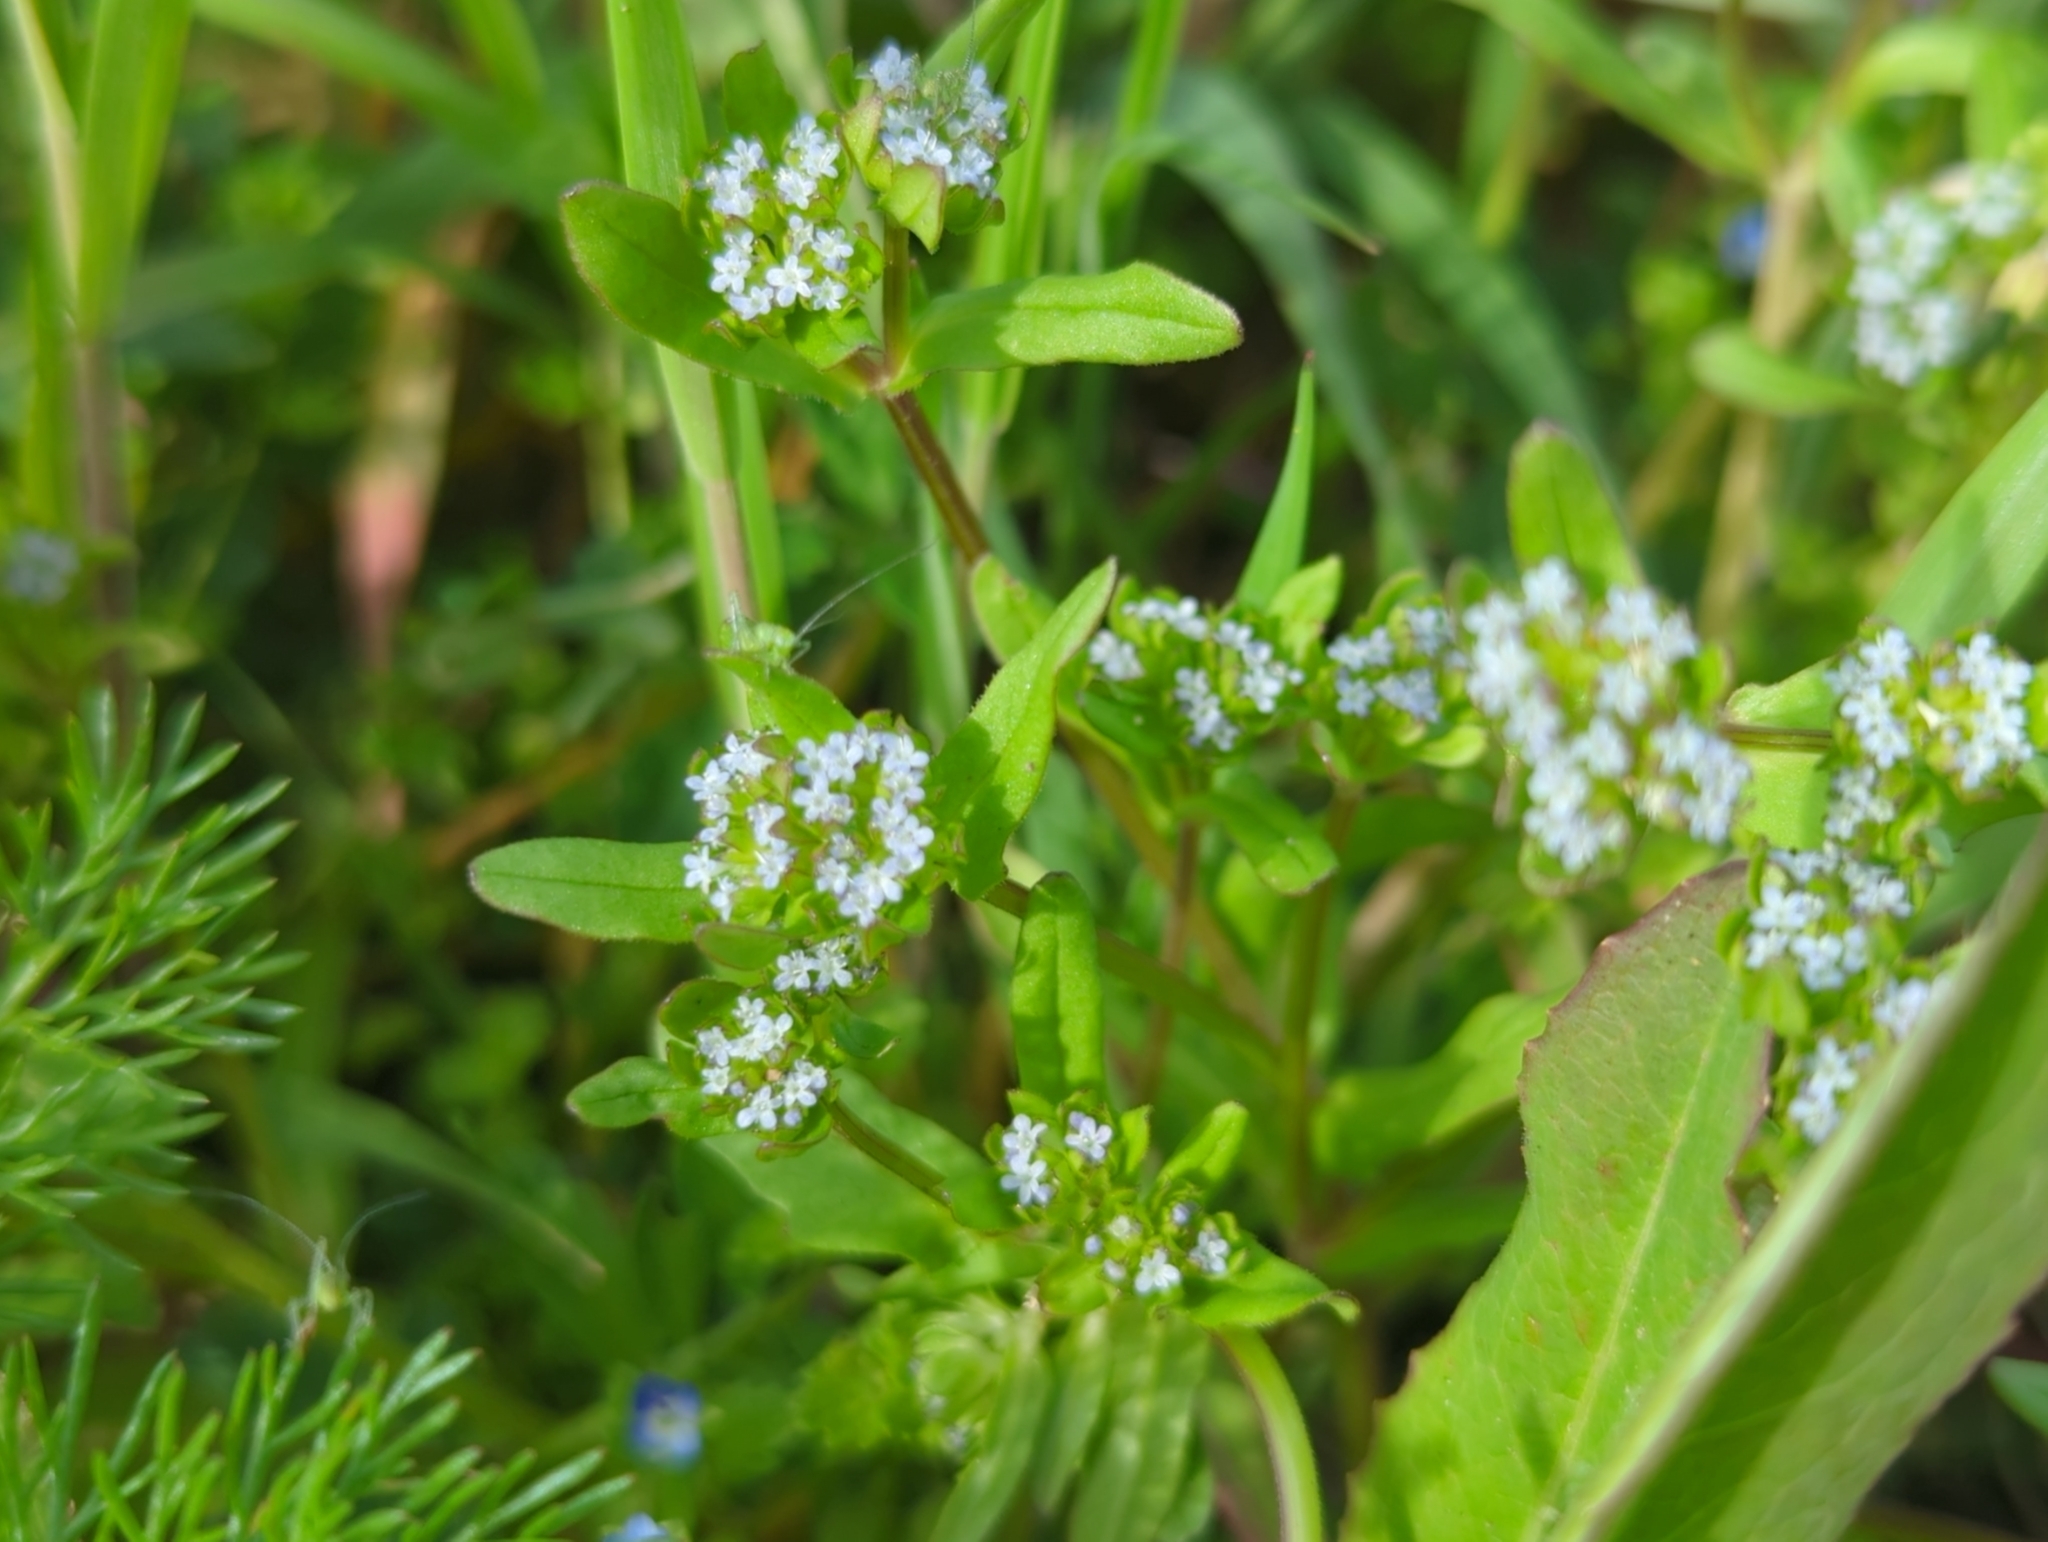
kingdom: Plantae
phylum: Tracheophyta
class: Magnoliopsida
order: Dipsacales
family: Caprifoliaceae
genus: Valerianella
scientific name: Valerianella locusta
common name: Common cornsalad
